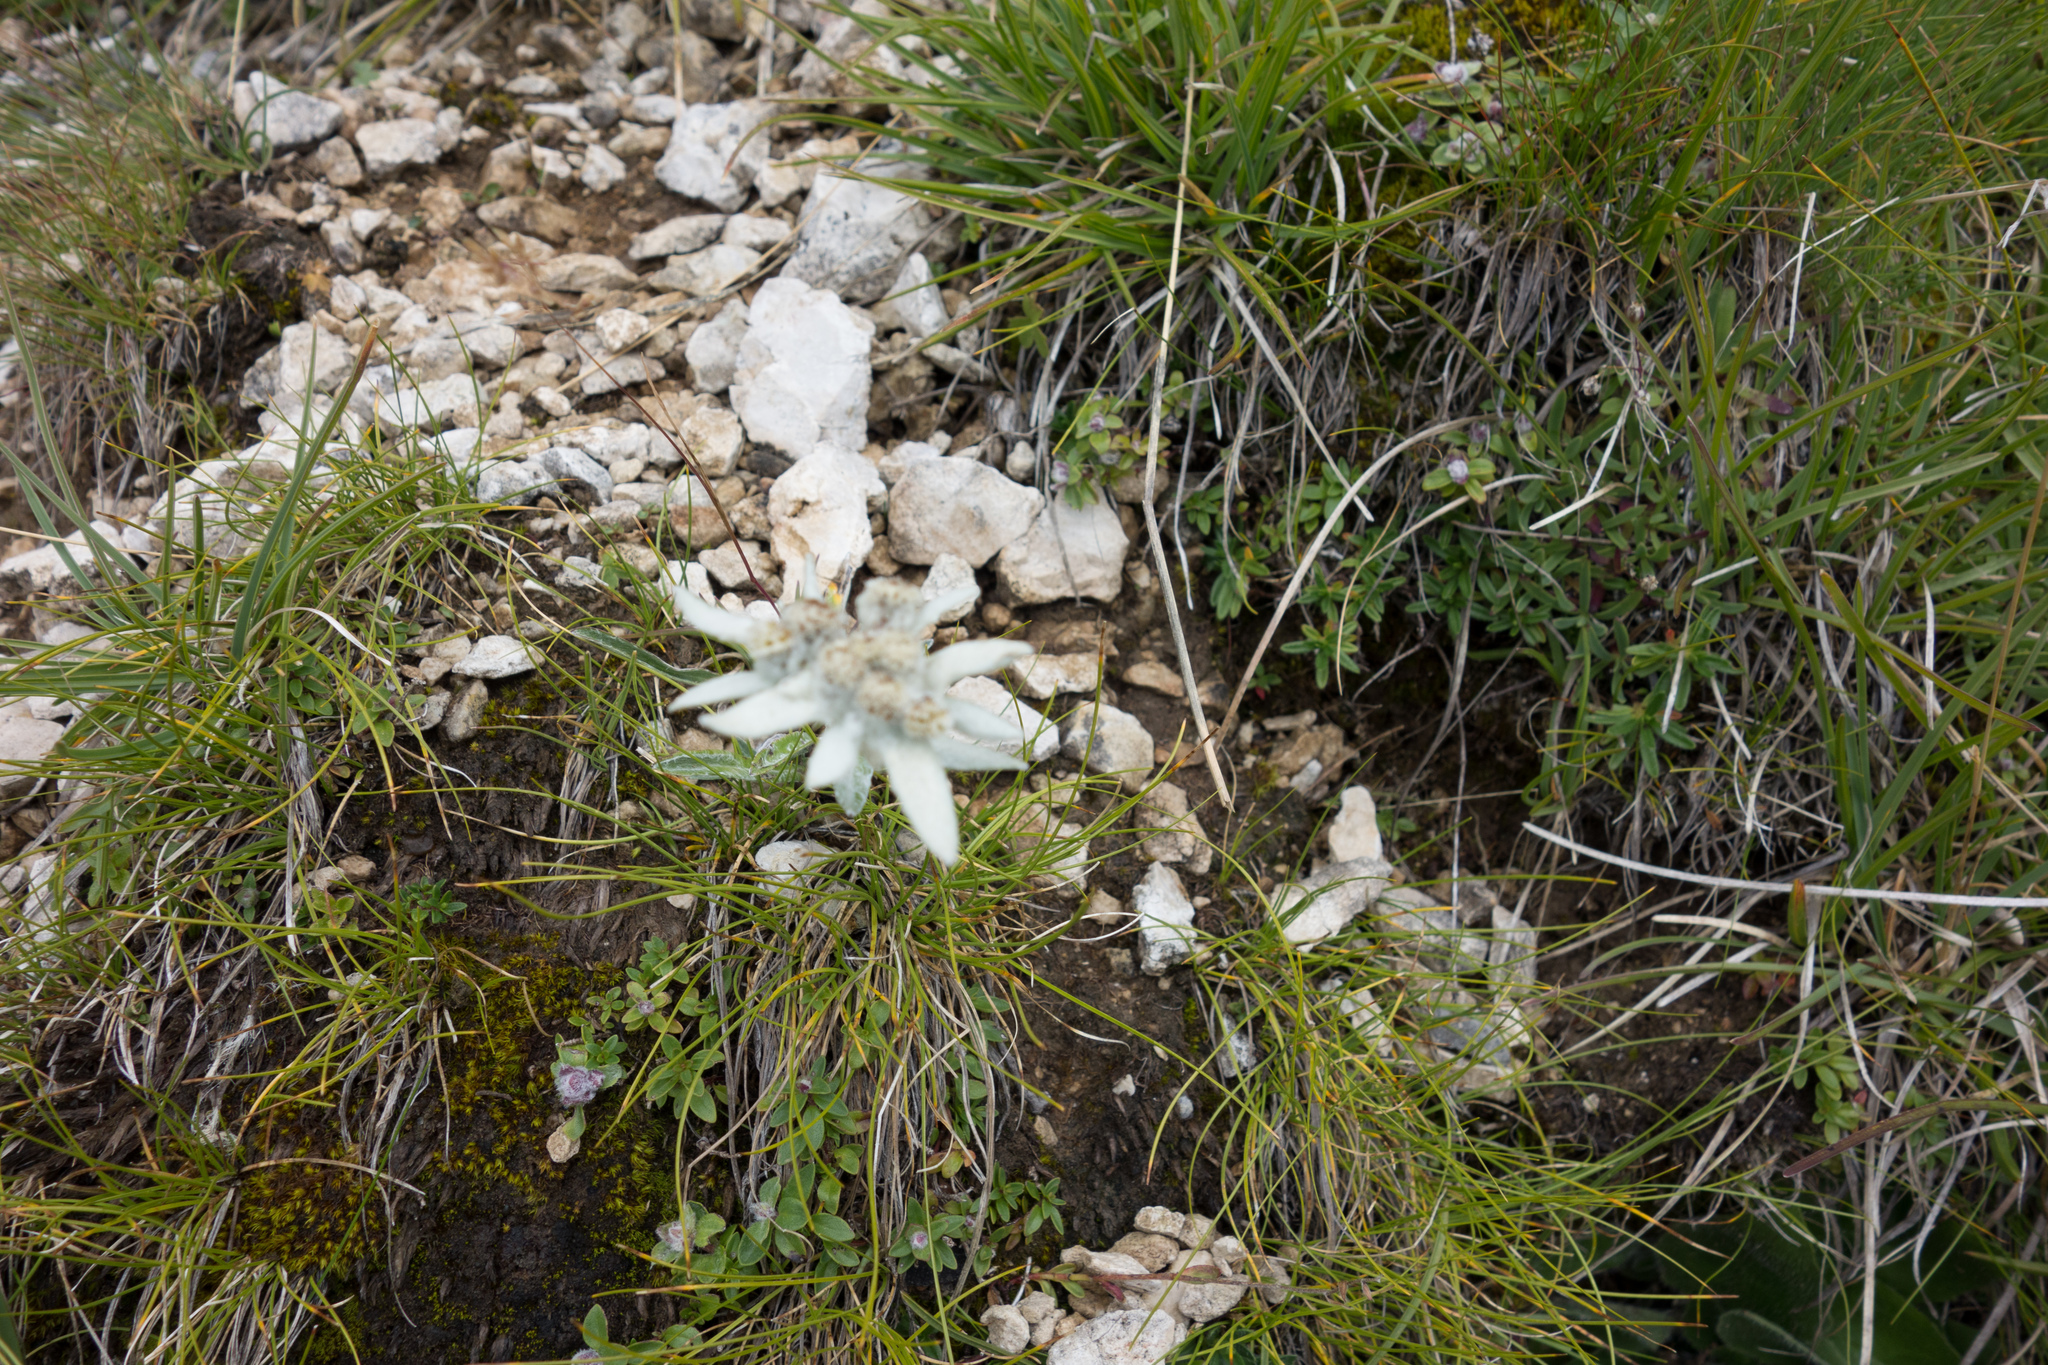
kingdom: Plantae
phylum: Tracheophyta
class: Magnoliopsida
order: Asterales
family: Asteraceae
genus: Leontopodium
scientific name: Leontopodium nivale
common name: Edelweiss
